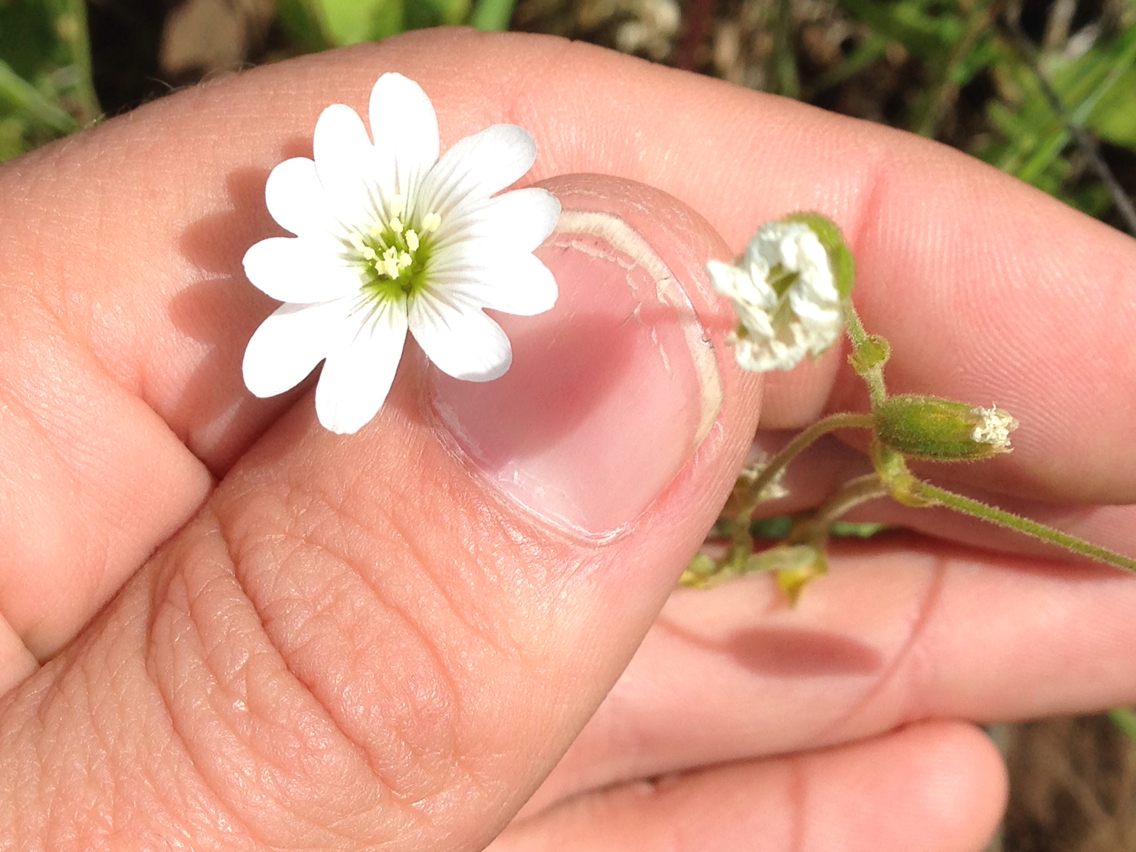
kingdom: Plantae
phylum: Tracheophyta
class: Magnoliopsida
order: Caryophyllales
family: Caryophyllaceae
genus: Cerastium
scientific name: Cerastium arvense
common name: Field mouse-ear
